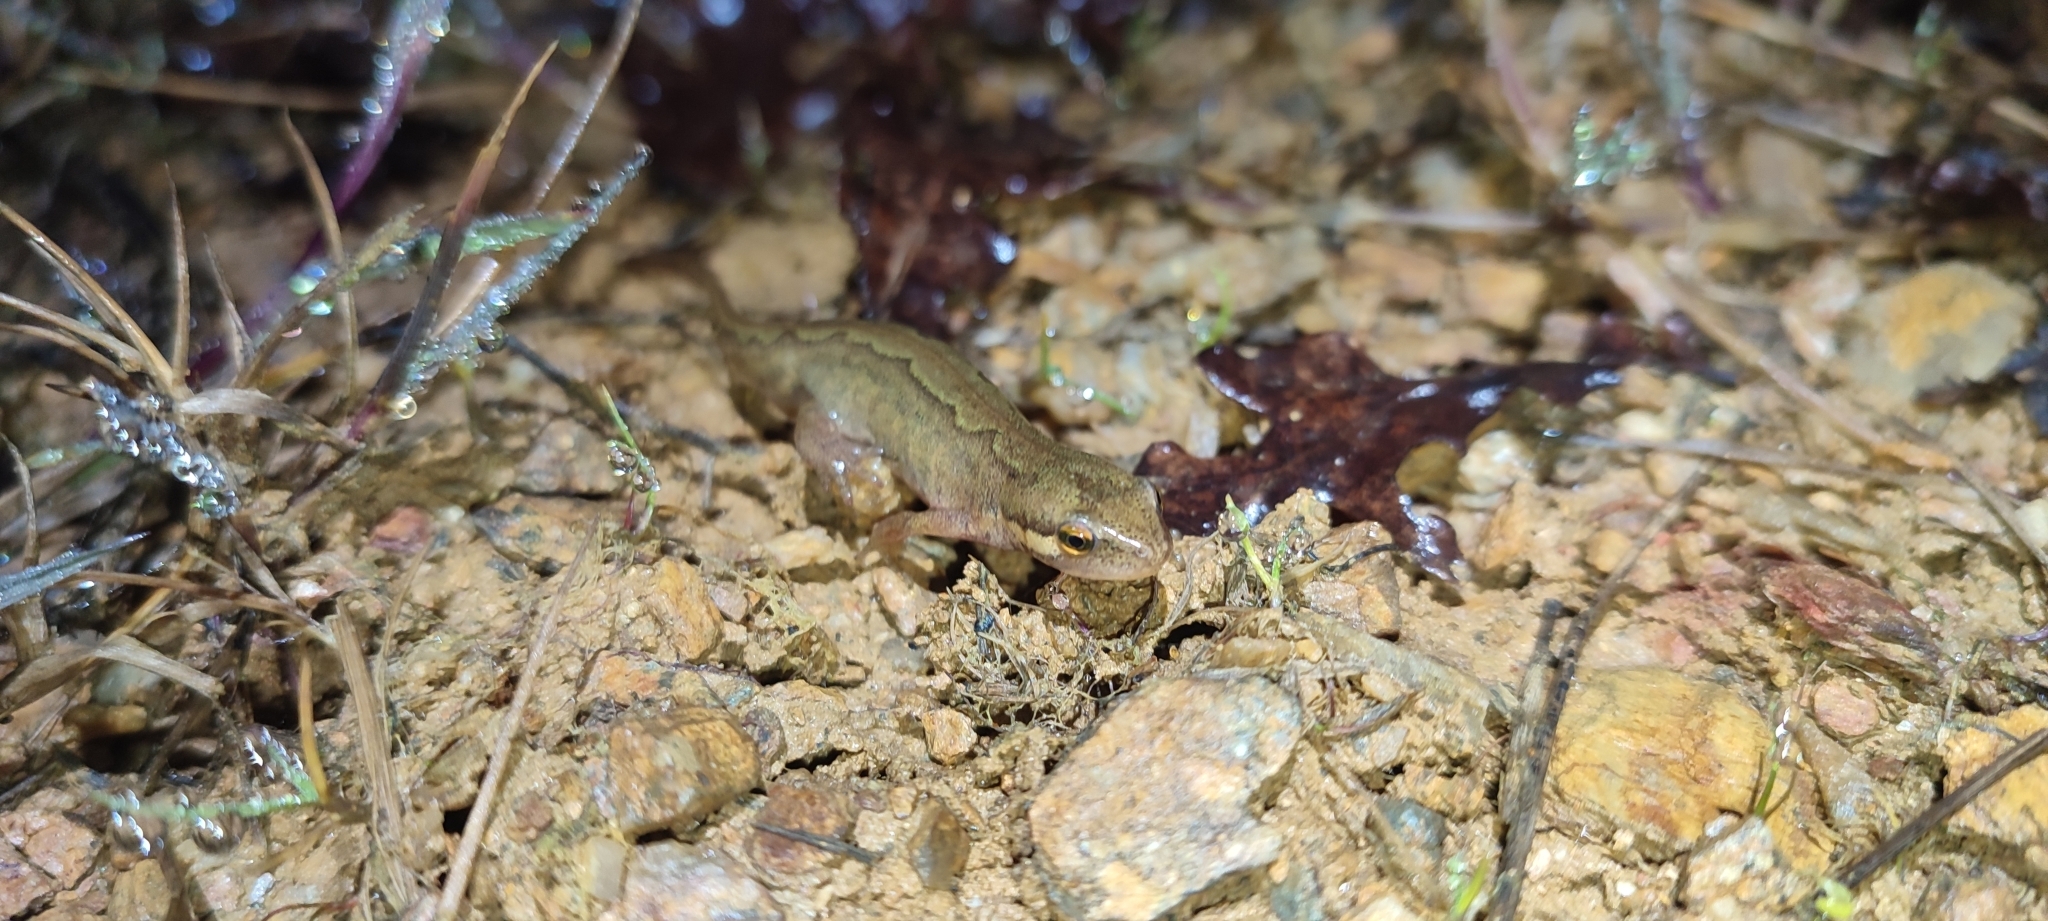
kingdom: Animalia
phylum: Chordata
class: Amphibia
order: Caudata
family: Salamandridae
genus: Lissotriton
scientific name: Lissotriton helveticus
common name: Palmate newt
